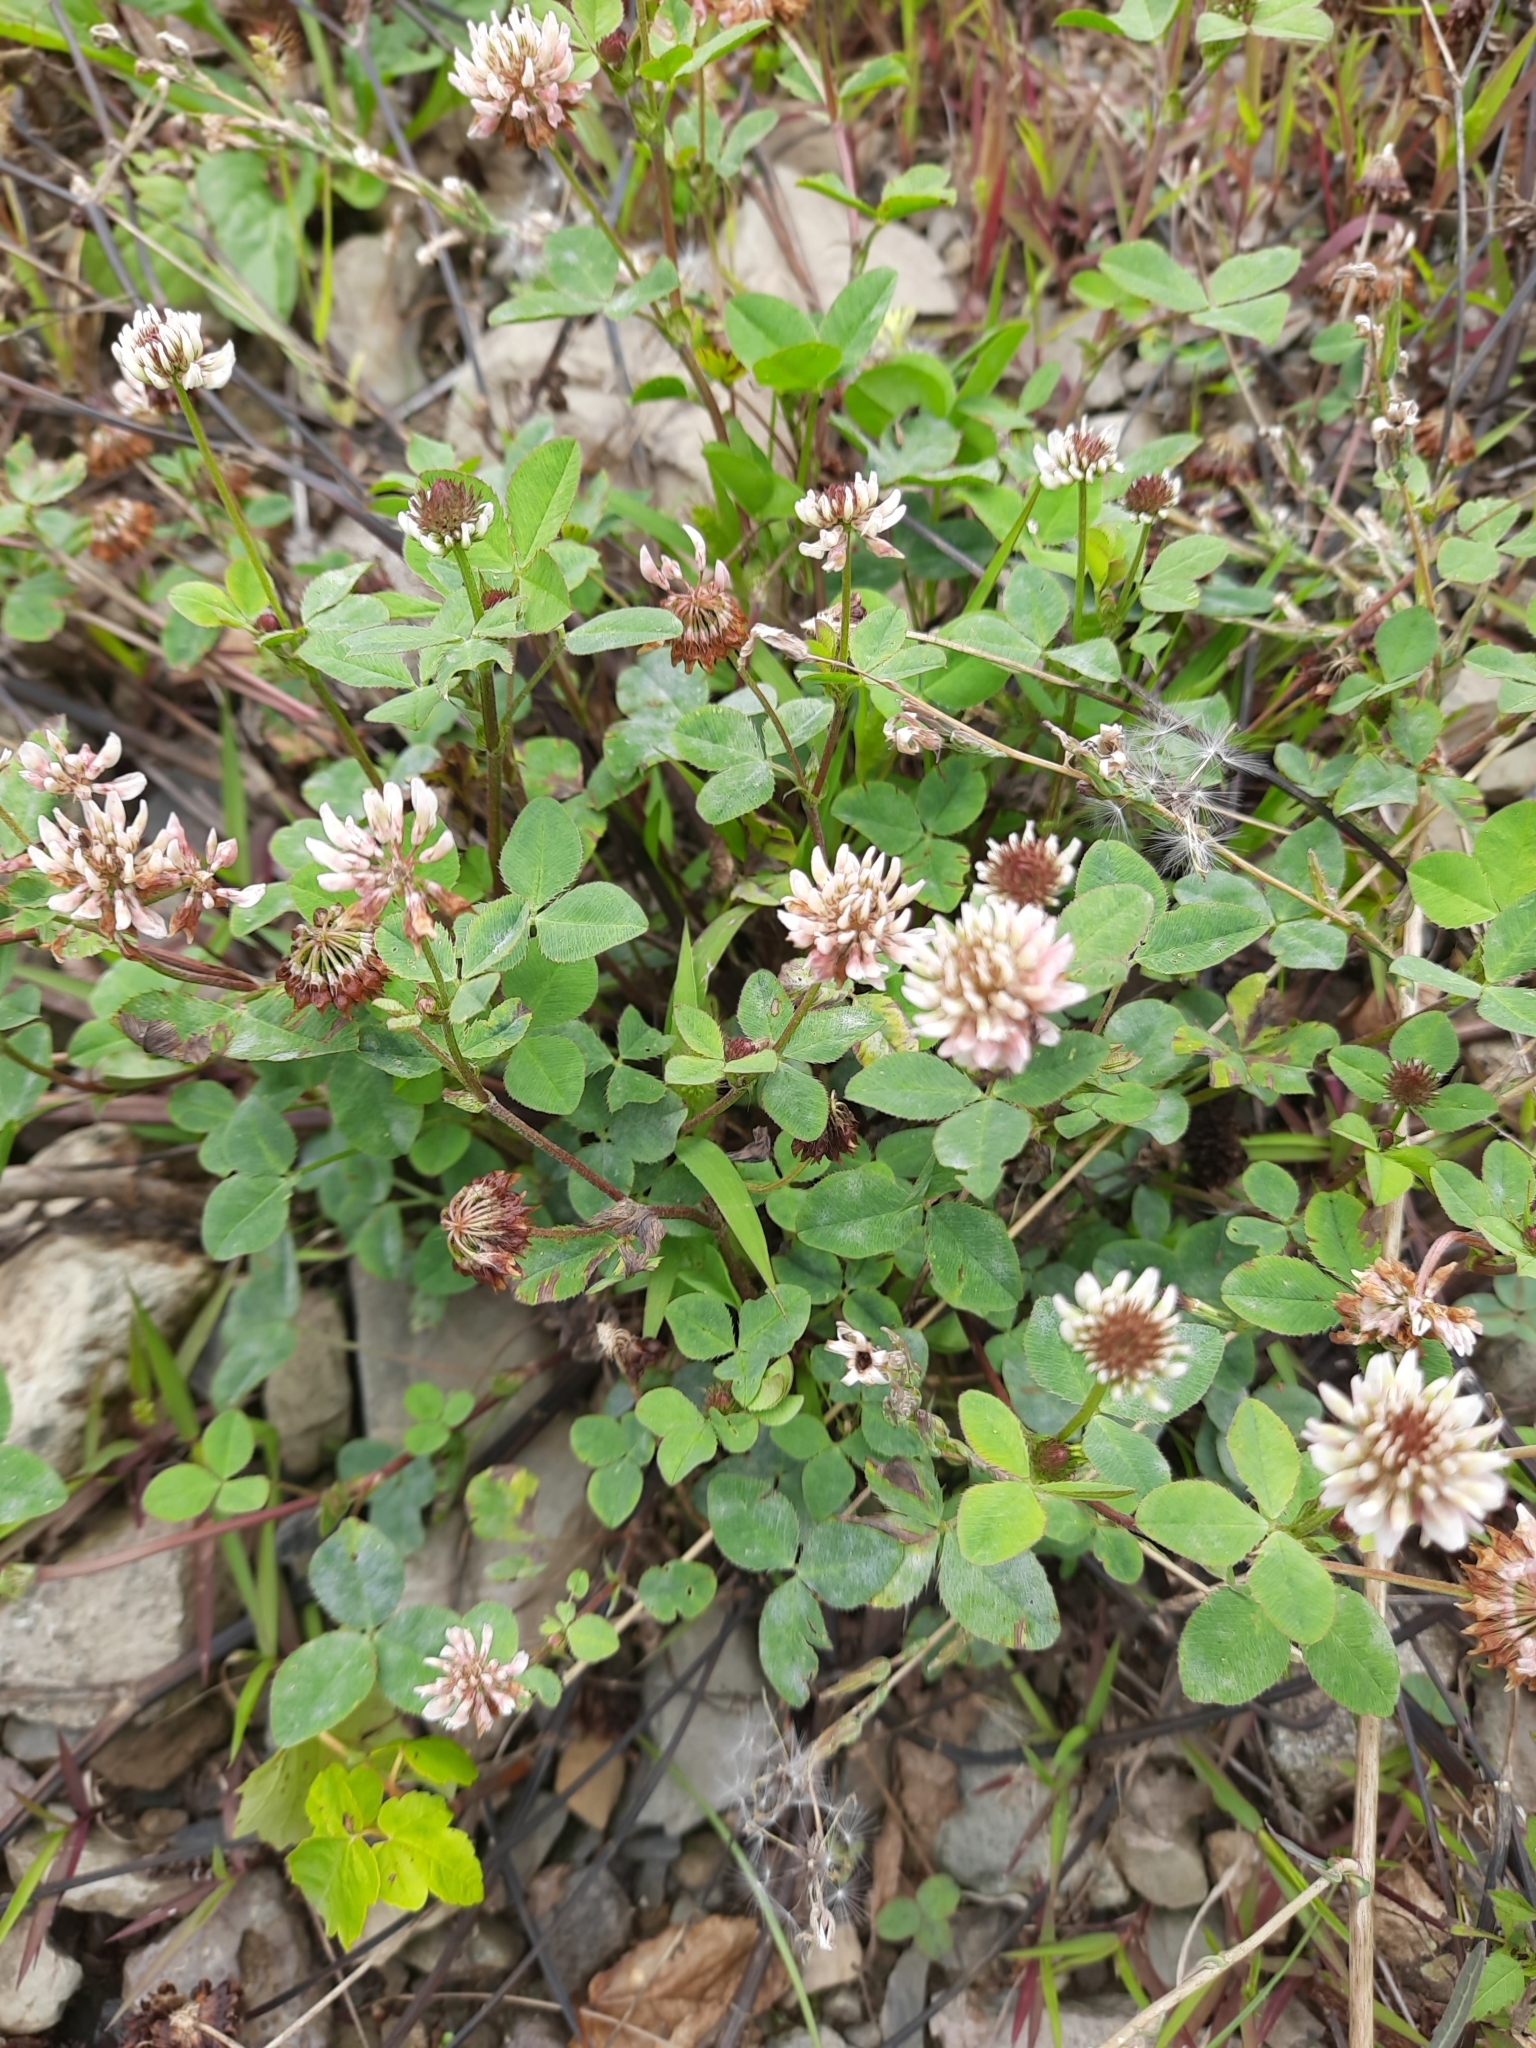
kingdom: Plantae
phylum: Tracheophyta
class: Magnoliopsida
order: Fabales
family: Fabaceae
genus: Trifolium
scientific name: Trifolium repens
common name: White clover
